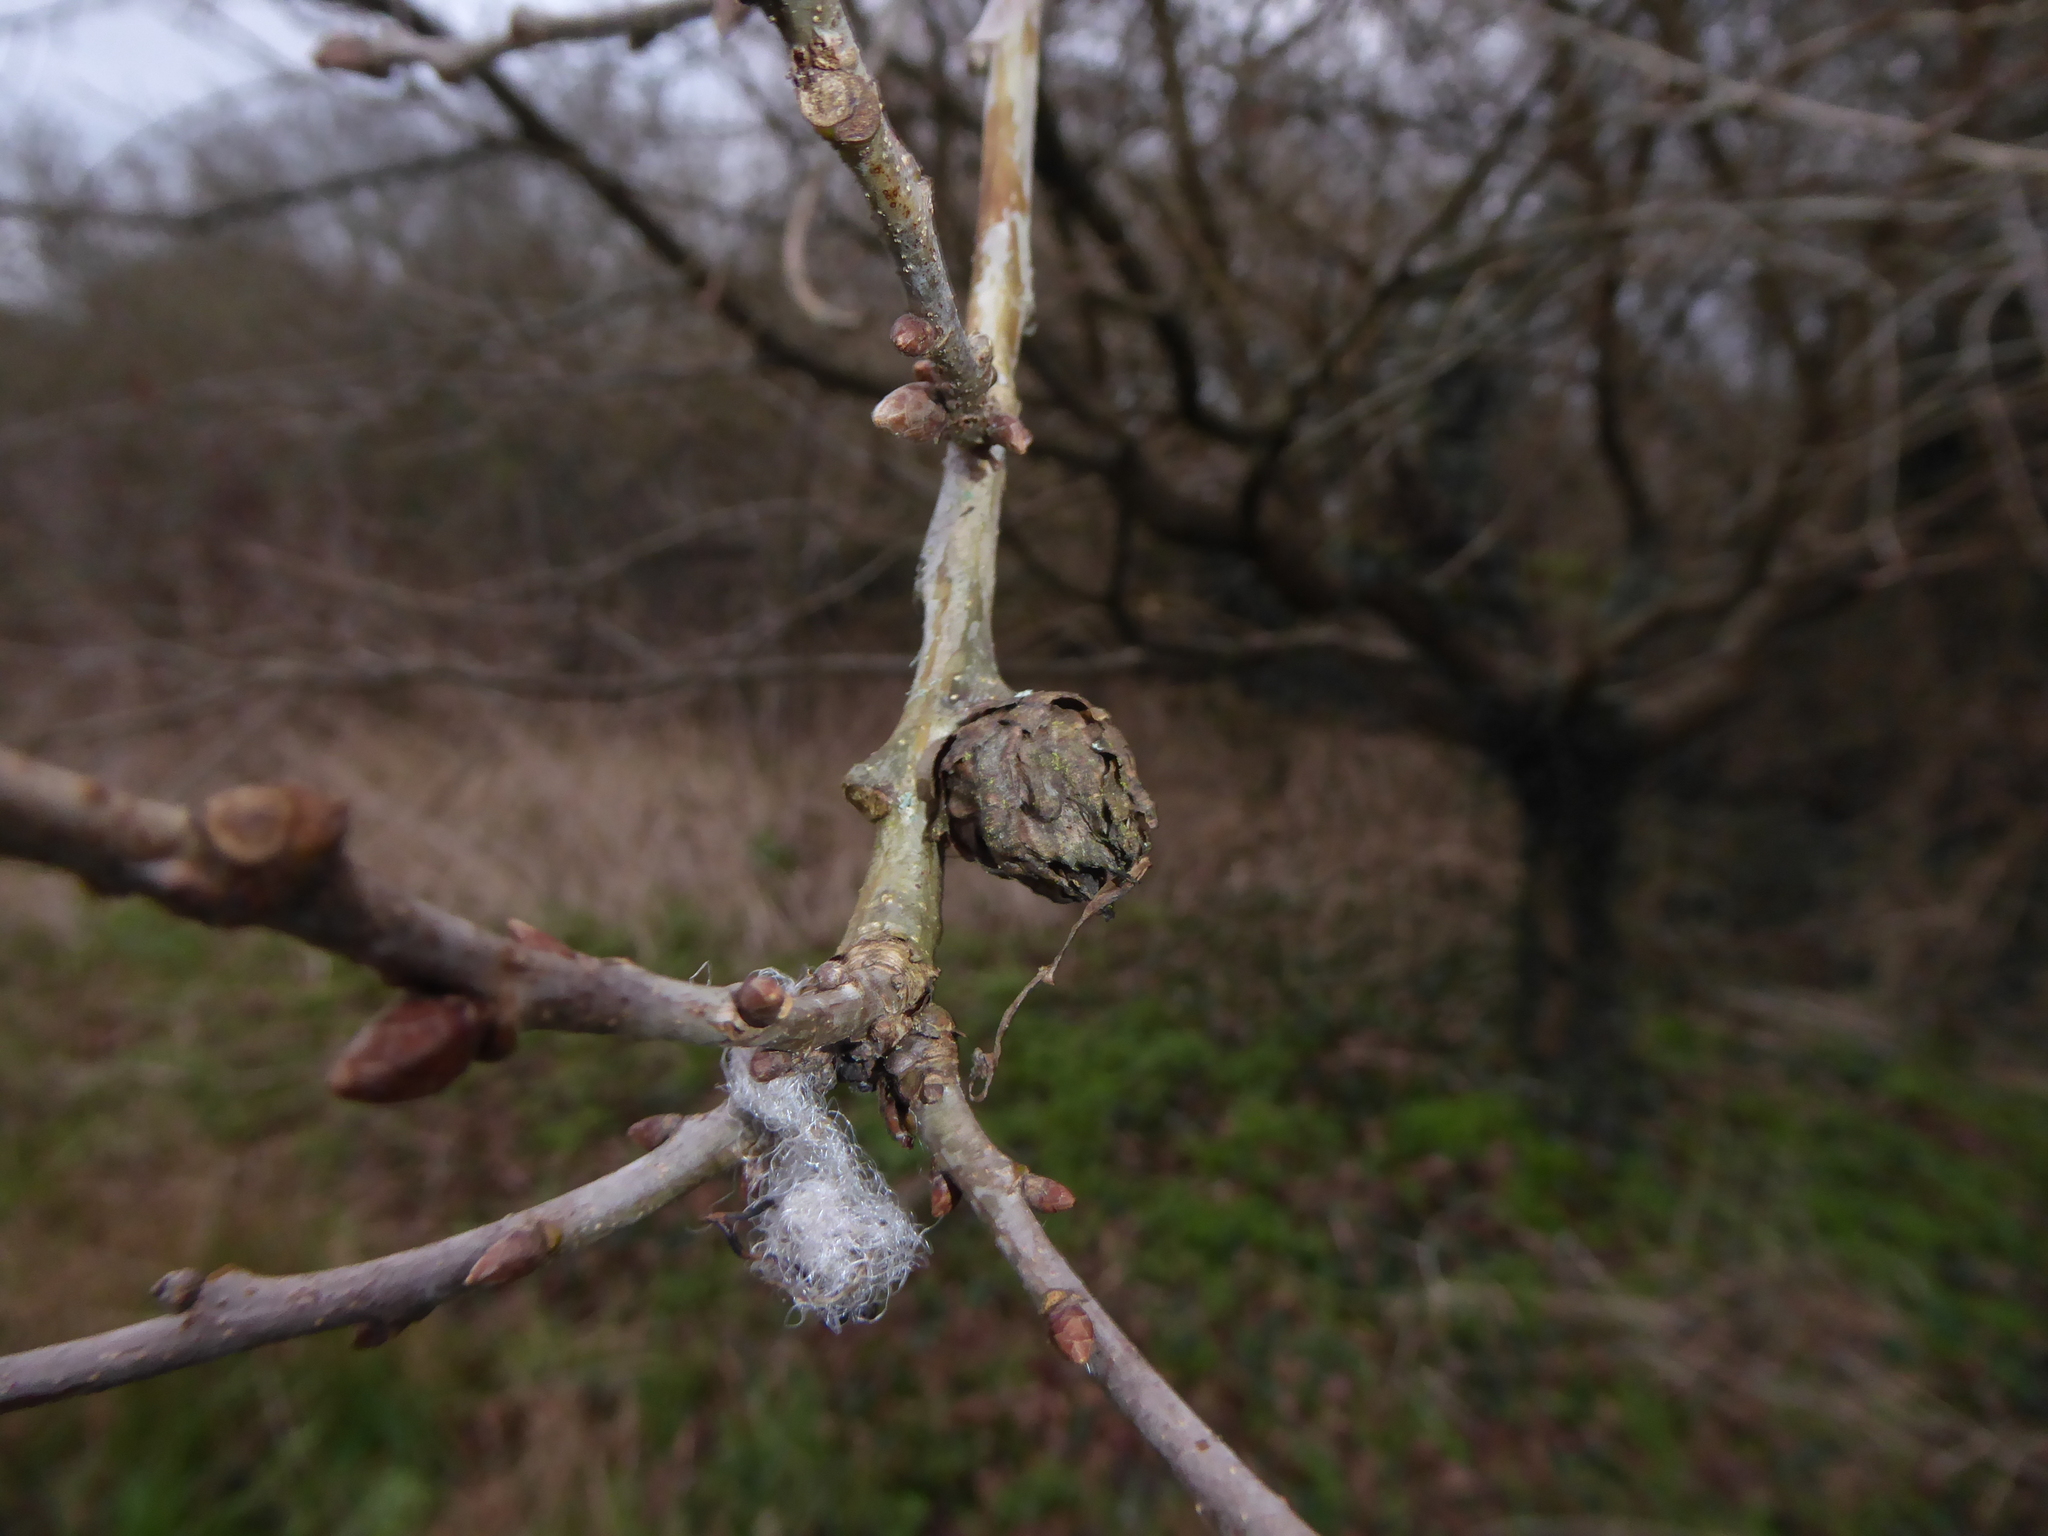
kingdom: Animalia
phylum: Arthropoda
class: Insecta
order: Hymenoptera
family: Cynipidae
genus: Andricus
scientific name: Andricus foecundatrix
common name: Artichoke gall
